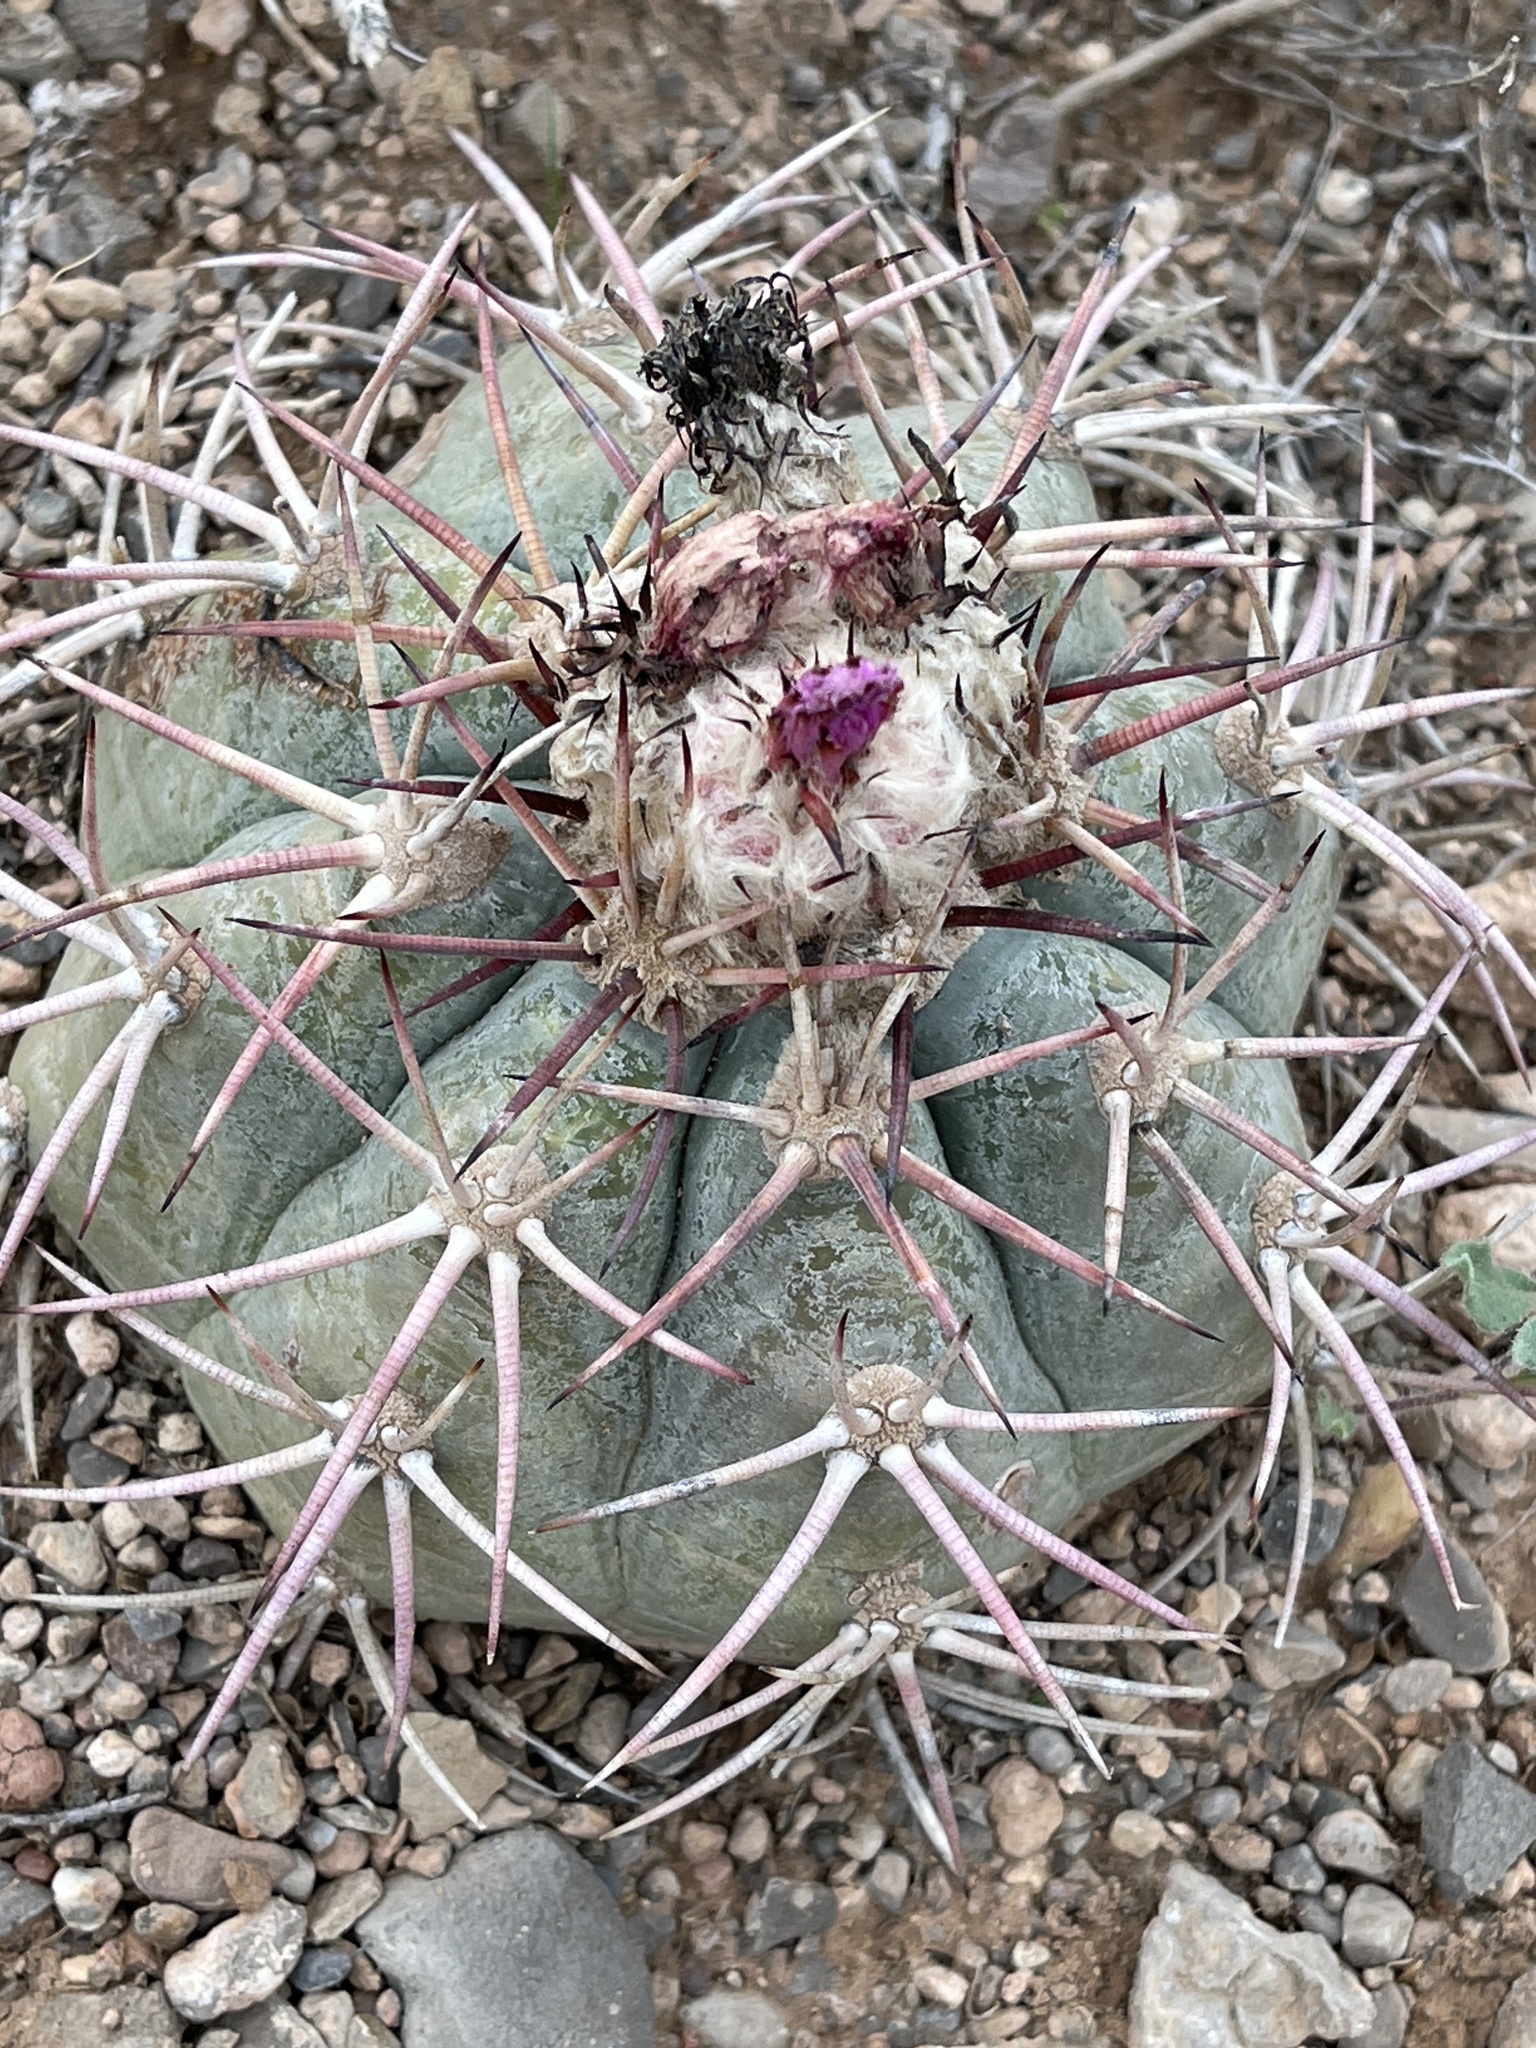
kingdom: Plantae
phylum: Tracheophyta
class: Magnoliopsida
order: Caryophyllales
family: Cactaceae
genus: Echinocactus
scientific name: Echinocactus horizonthalonius
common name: Devilshead
